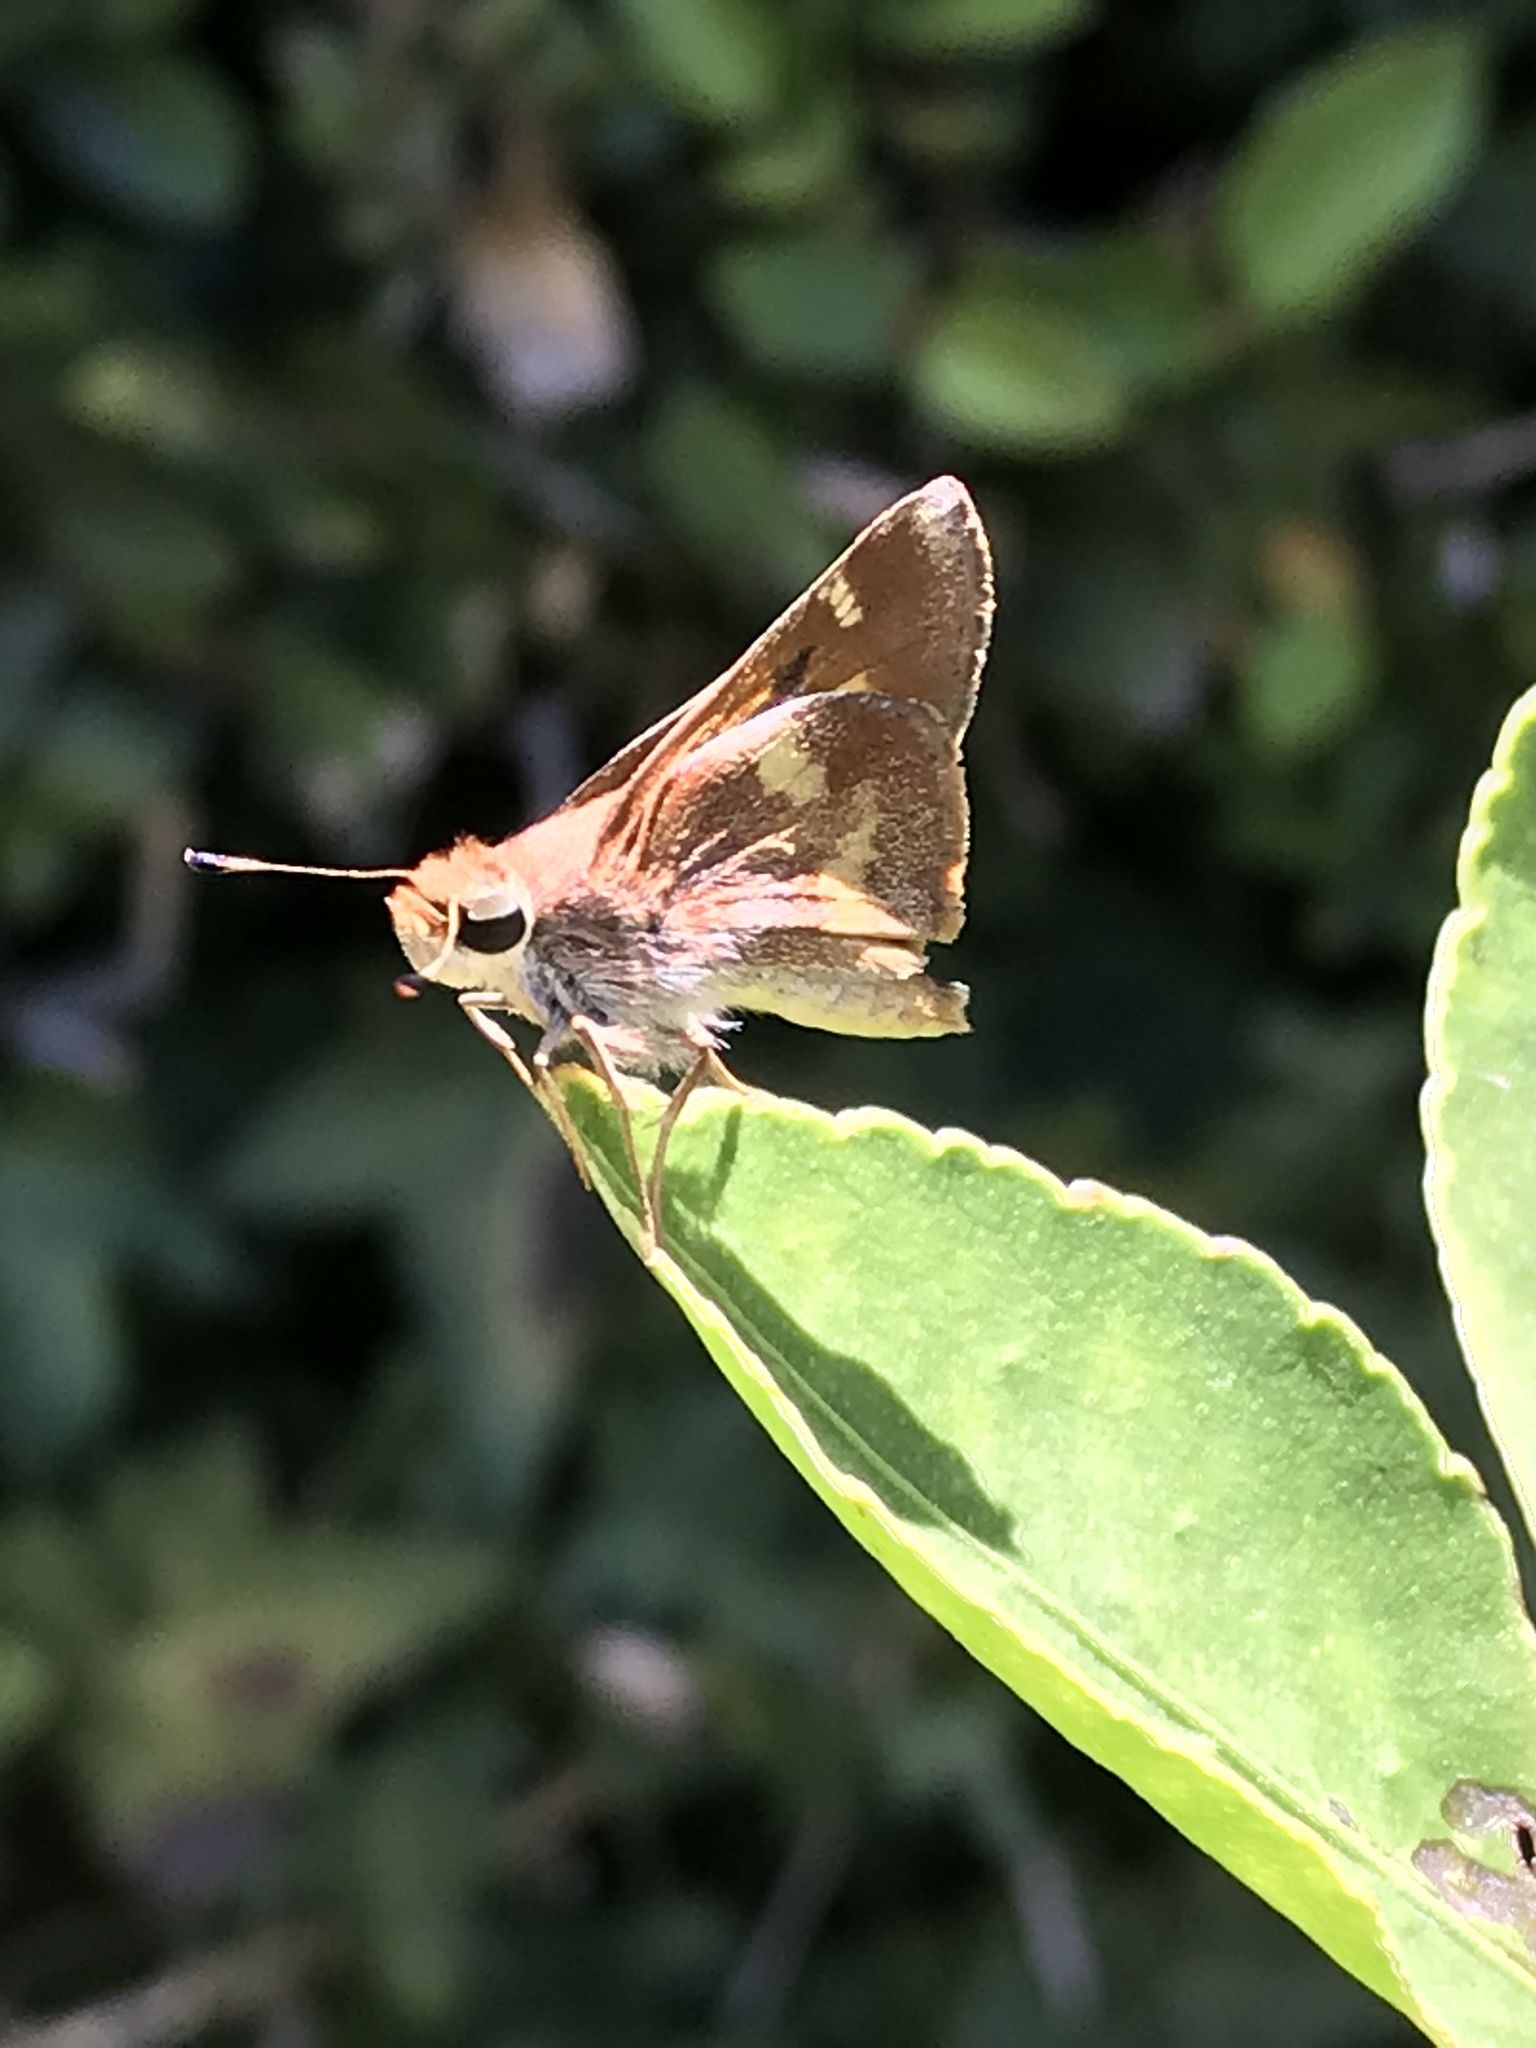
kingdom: Animalia
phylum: Arthropoda
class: Insecta
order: Lepidoptera
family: Hesperiidae
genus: Lon
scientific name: Lon melane
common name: Umber skipper
